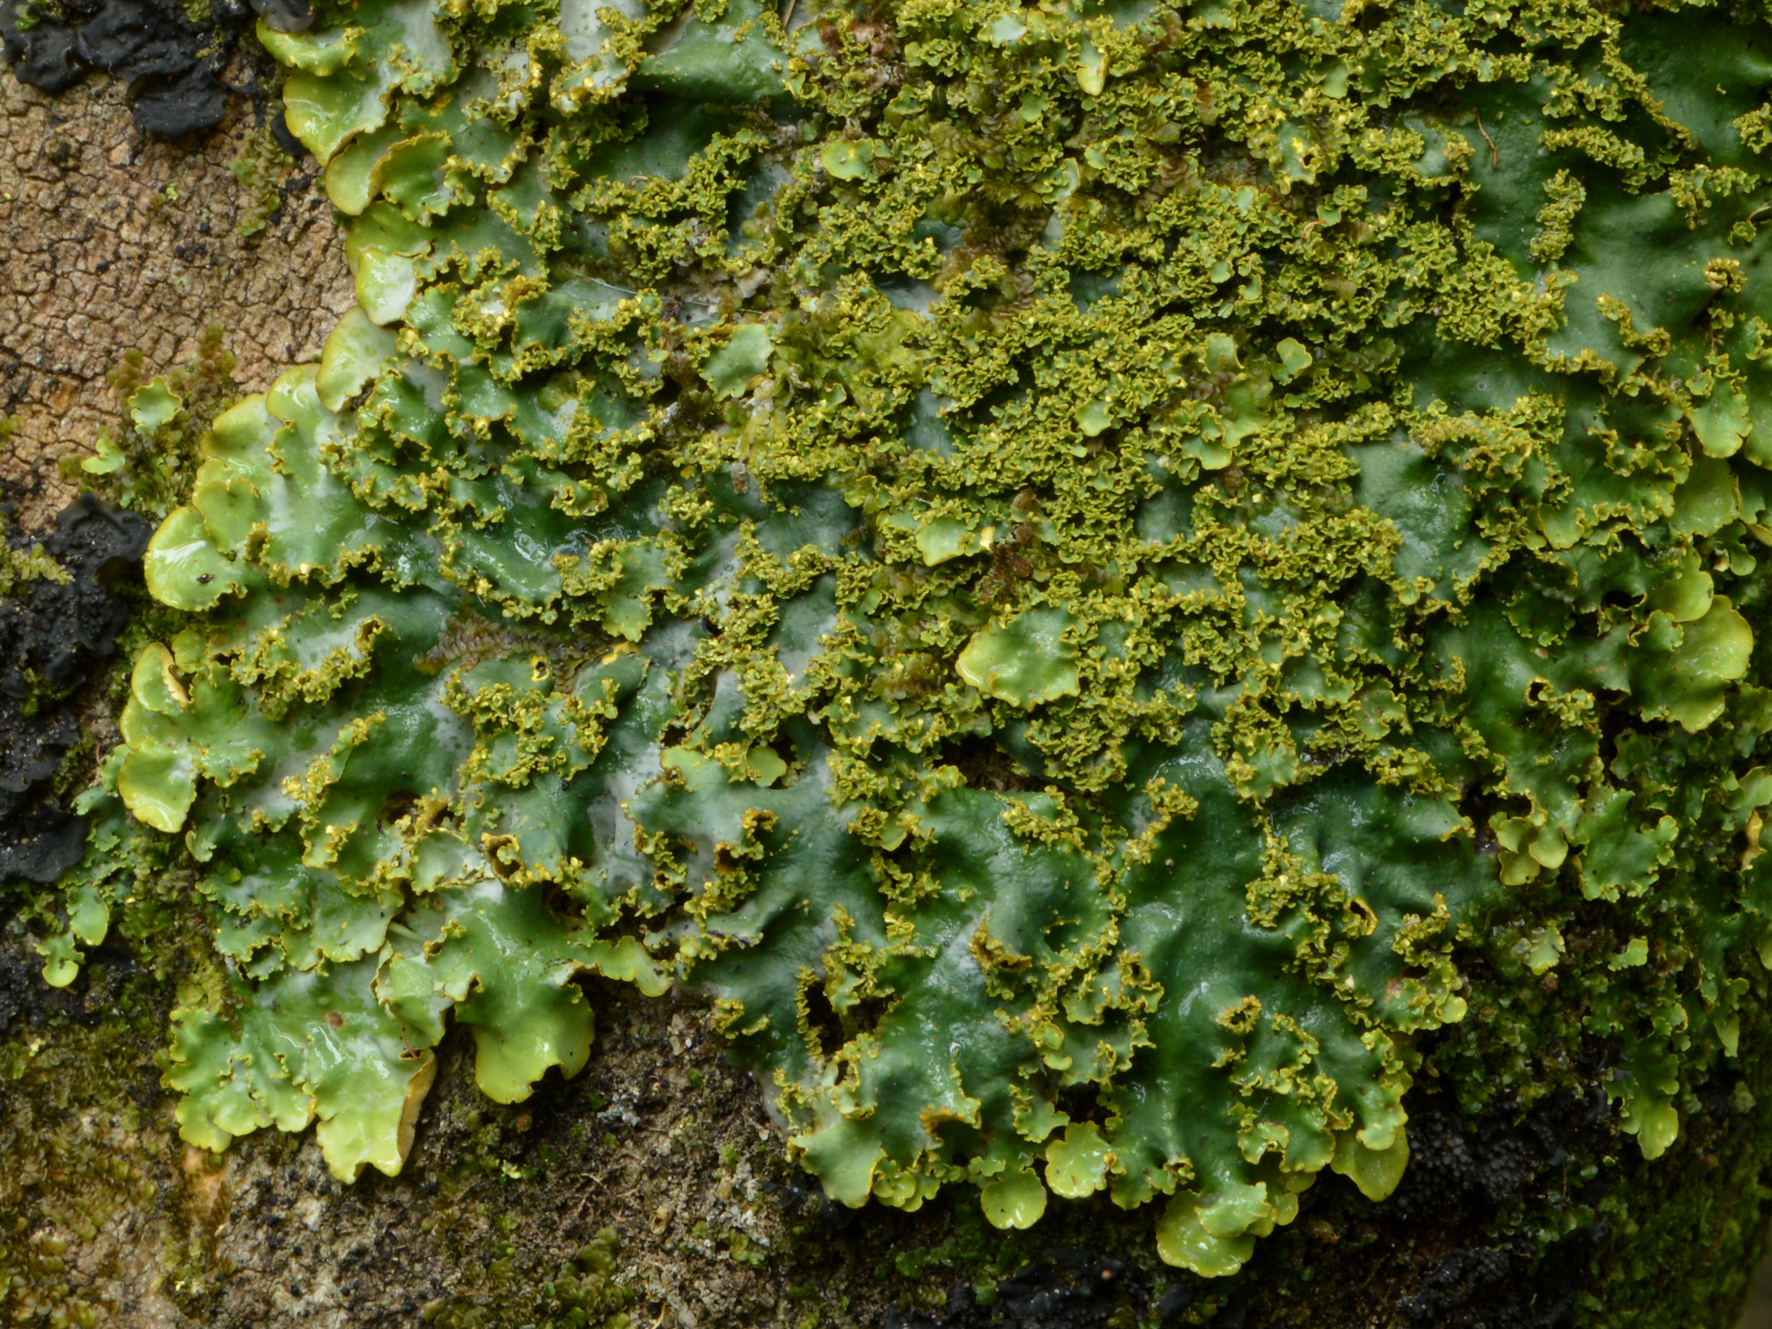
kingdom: Fungi
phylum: Ascomycota
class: Lecanoromycetes
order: Peltigerales
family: Lobariaceae
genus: Podostictina
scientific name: Podostictina pickeringii
